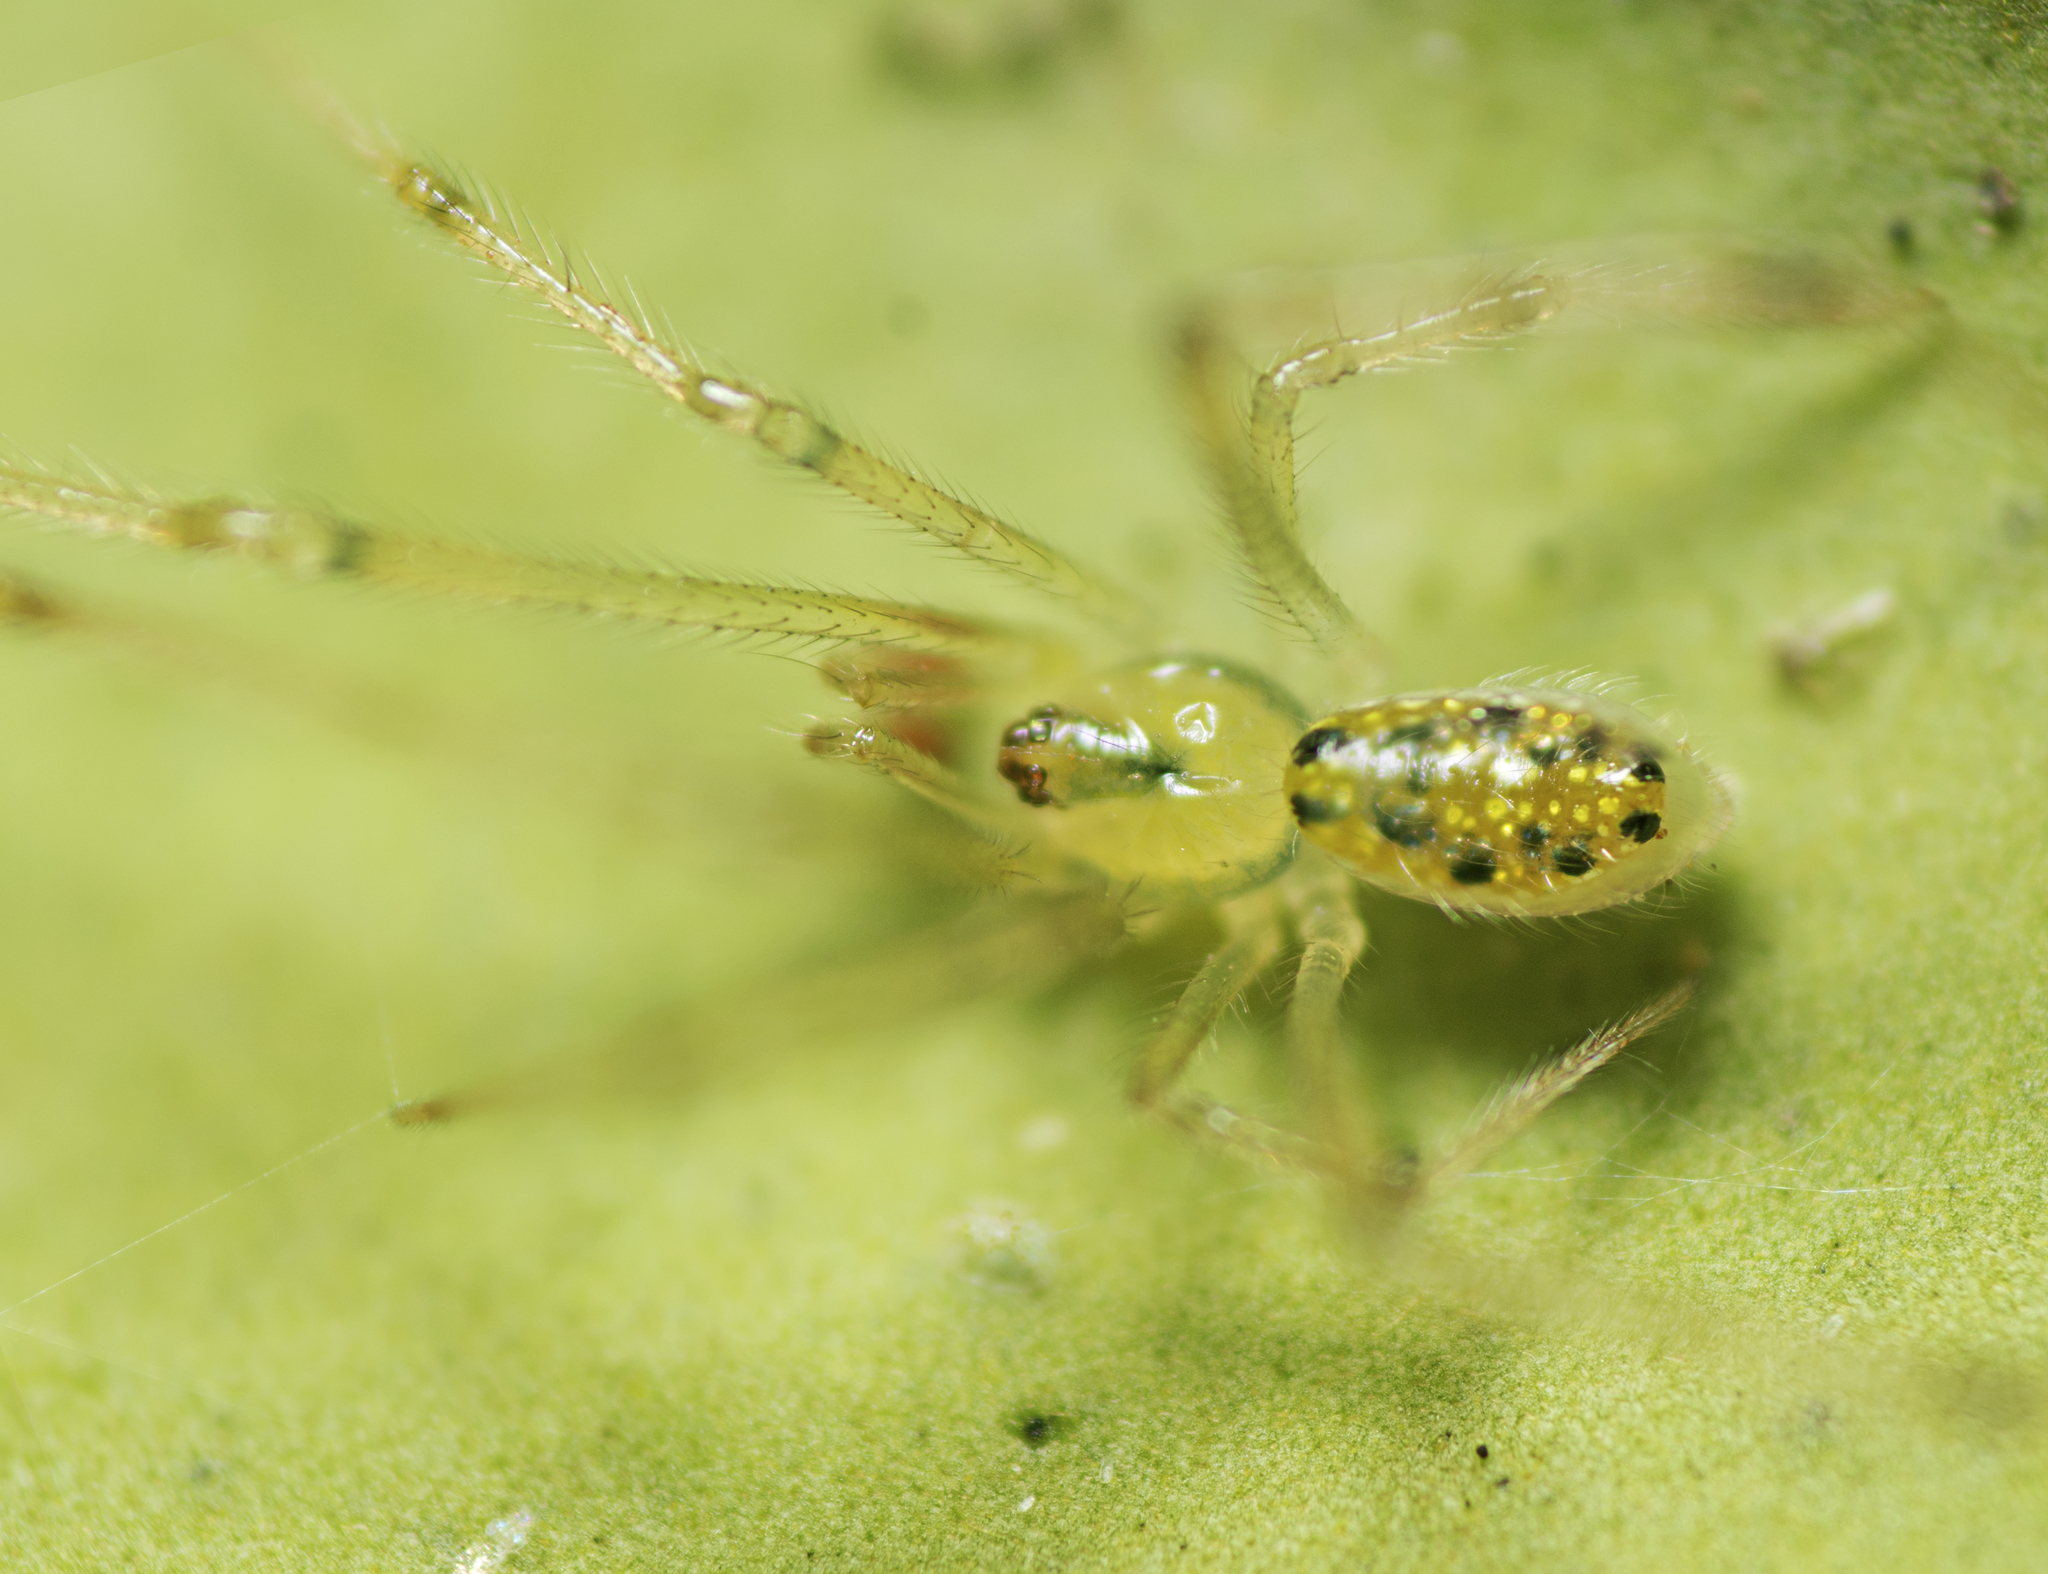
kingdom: Animalia
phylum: Arthropoda
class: Arachnida
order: Araneae
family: Theridiidae
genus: Thwaitesia
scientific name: Thwaitesia nigronodosa
